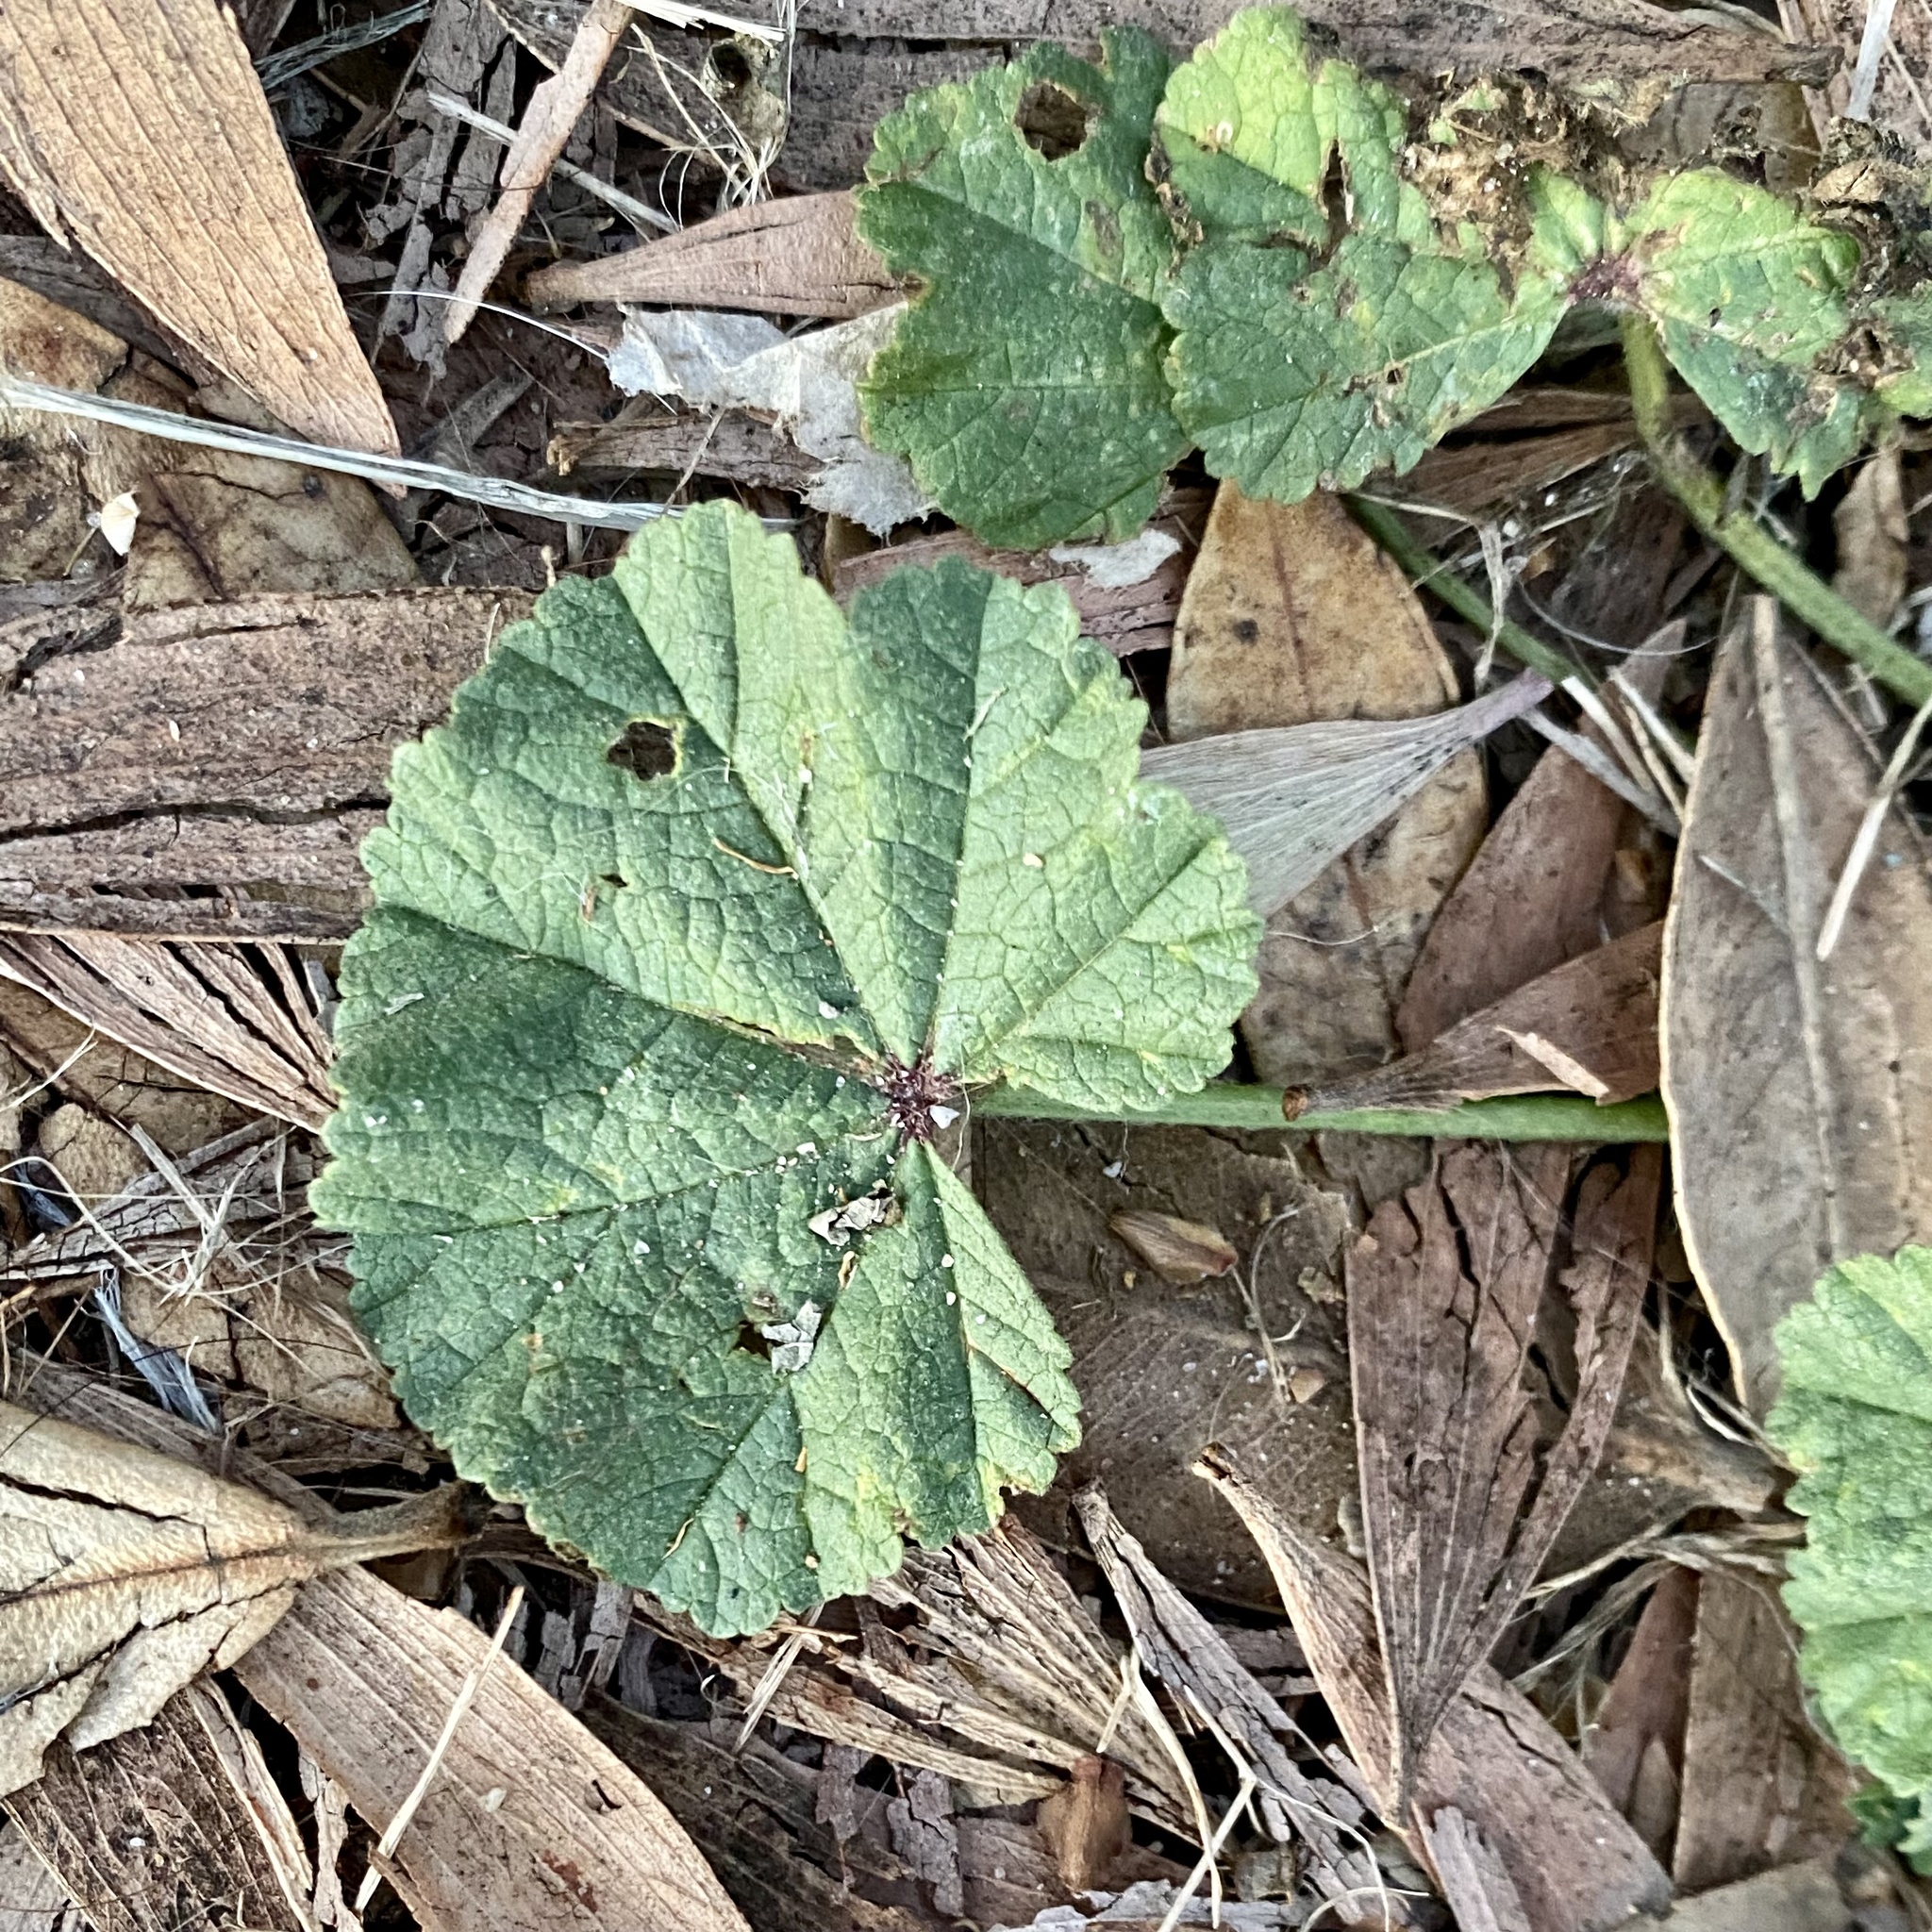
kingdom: Plantae
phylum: Tracheophyta
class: Magnoliopsida
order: Malvales
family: Malvaceae
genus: Malva
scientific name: Malva
